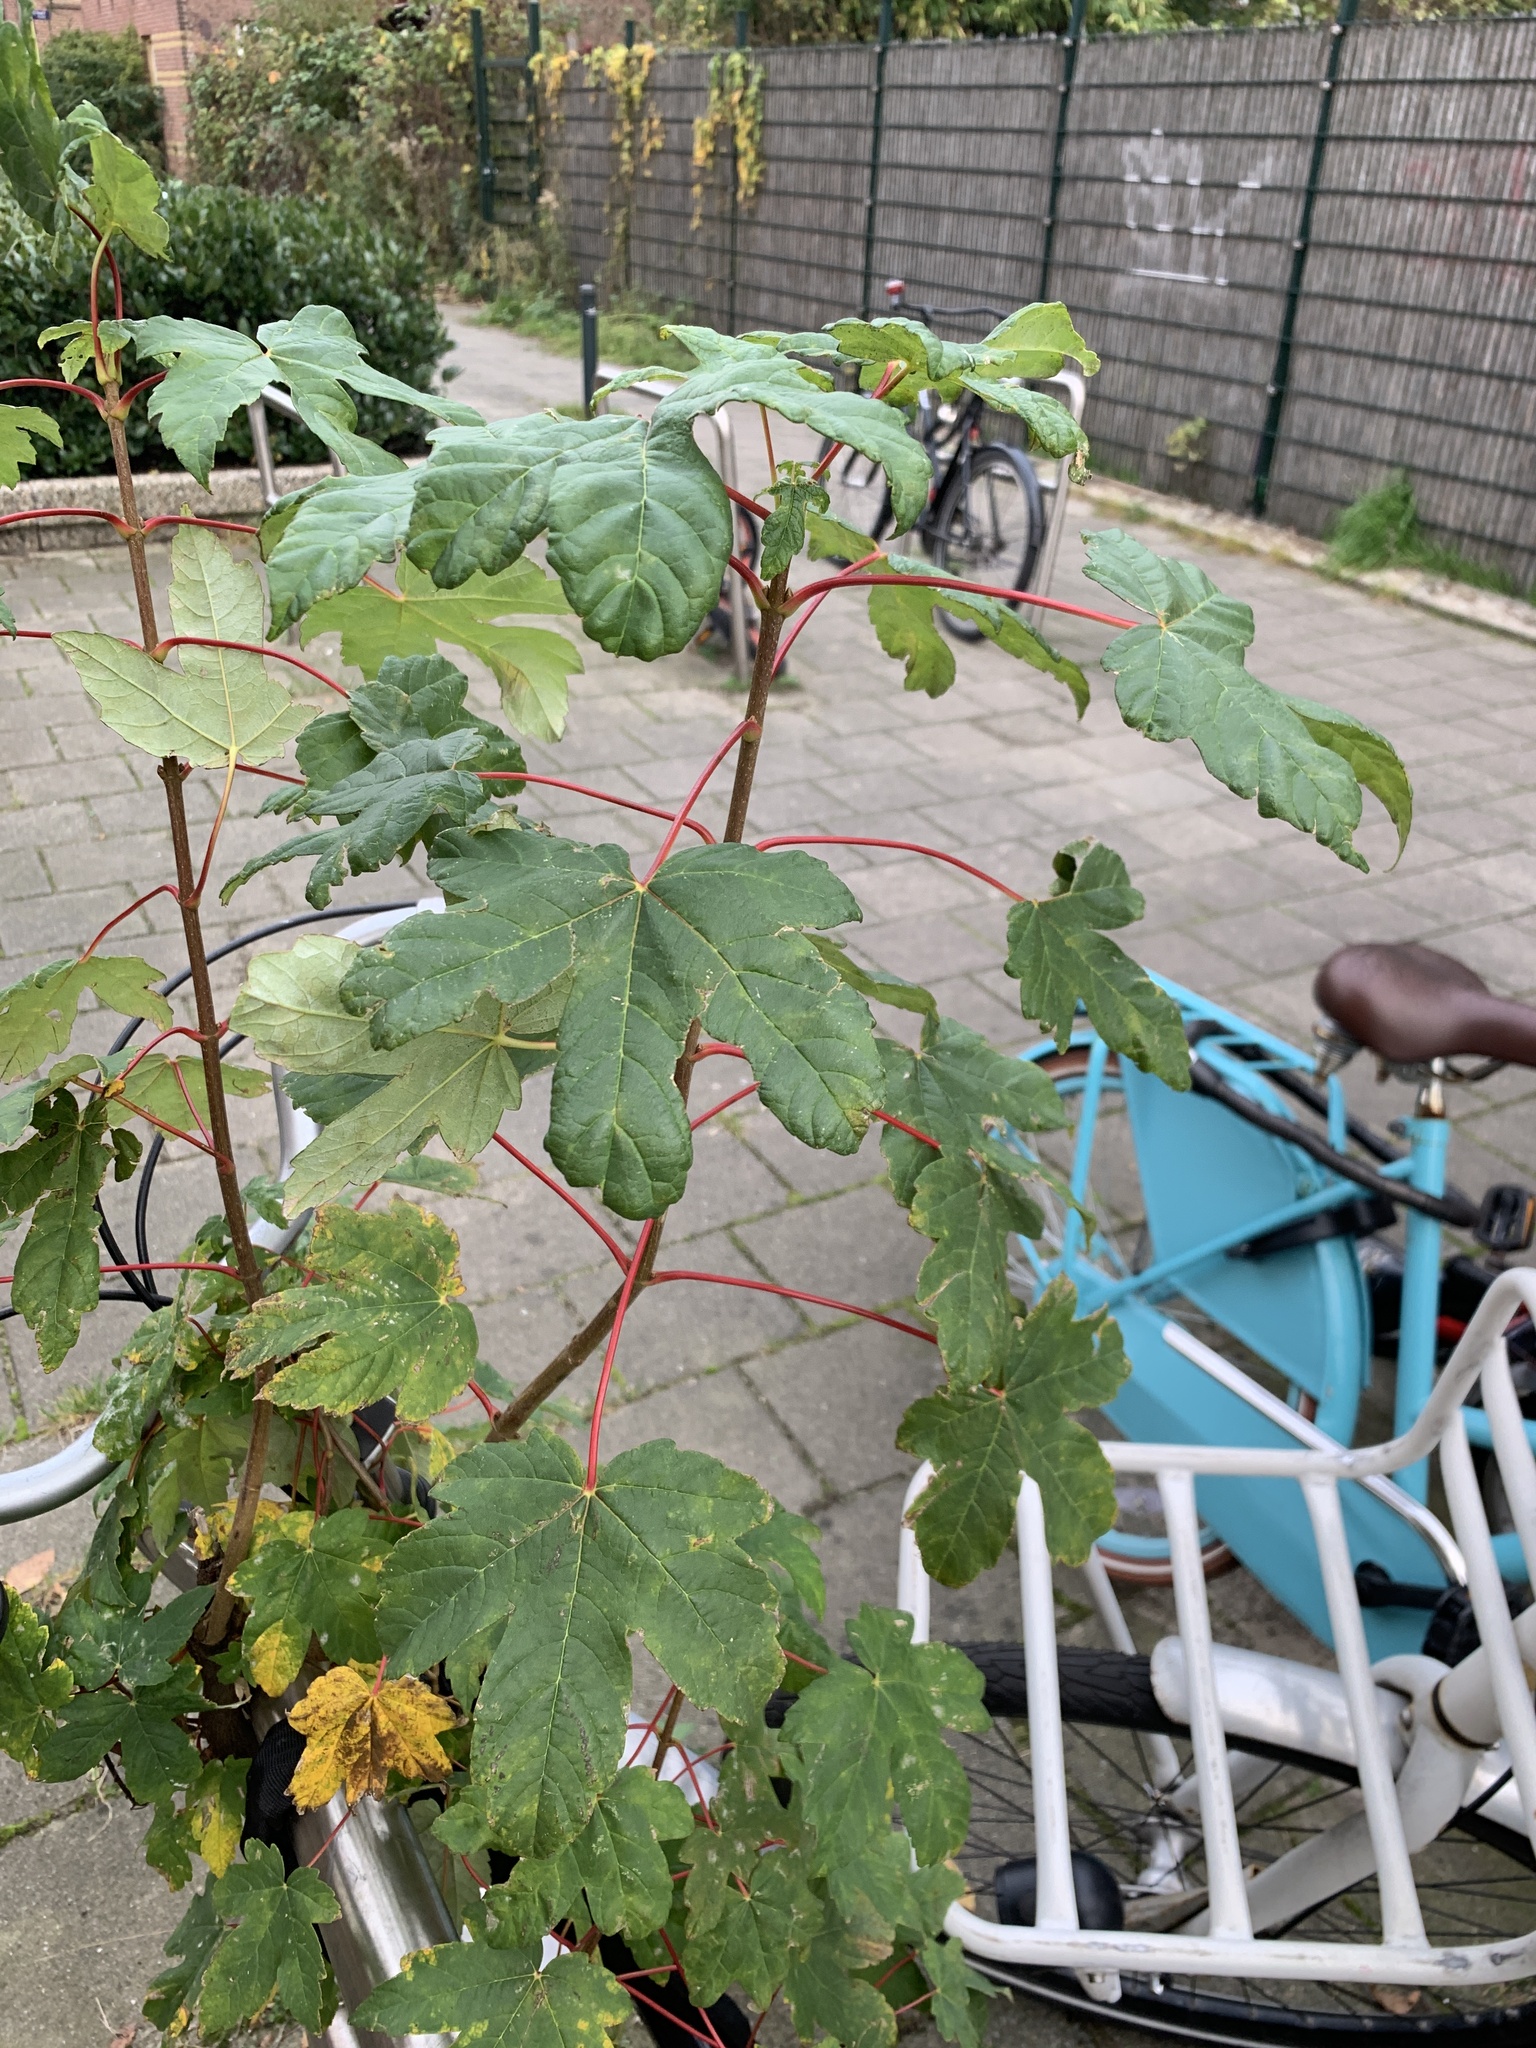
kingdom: Plantae
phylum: Tracheophyta
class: Magnoliopsida
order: Sapindales
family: Sapindaceae
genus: Acer
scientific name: Acer pseudoplatanus
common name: Sycamore
